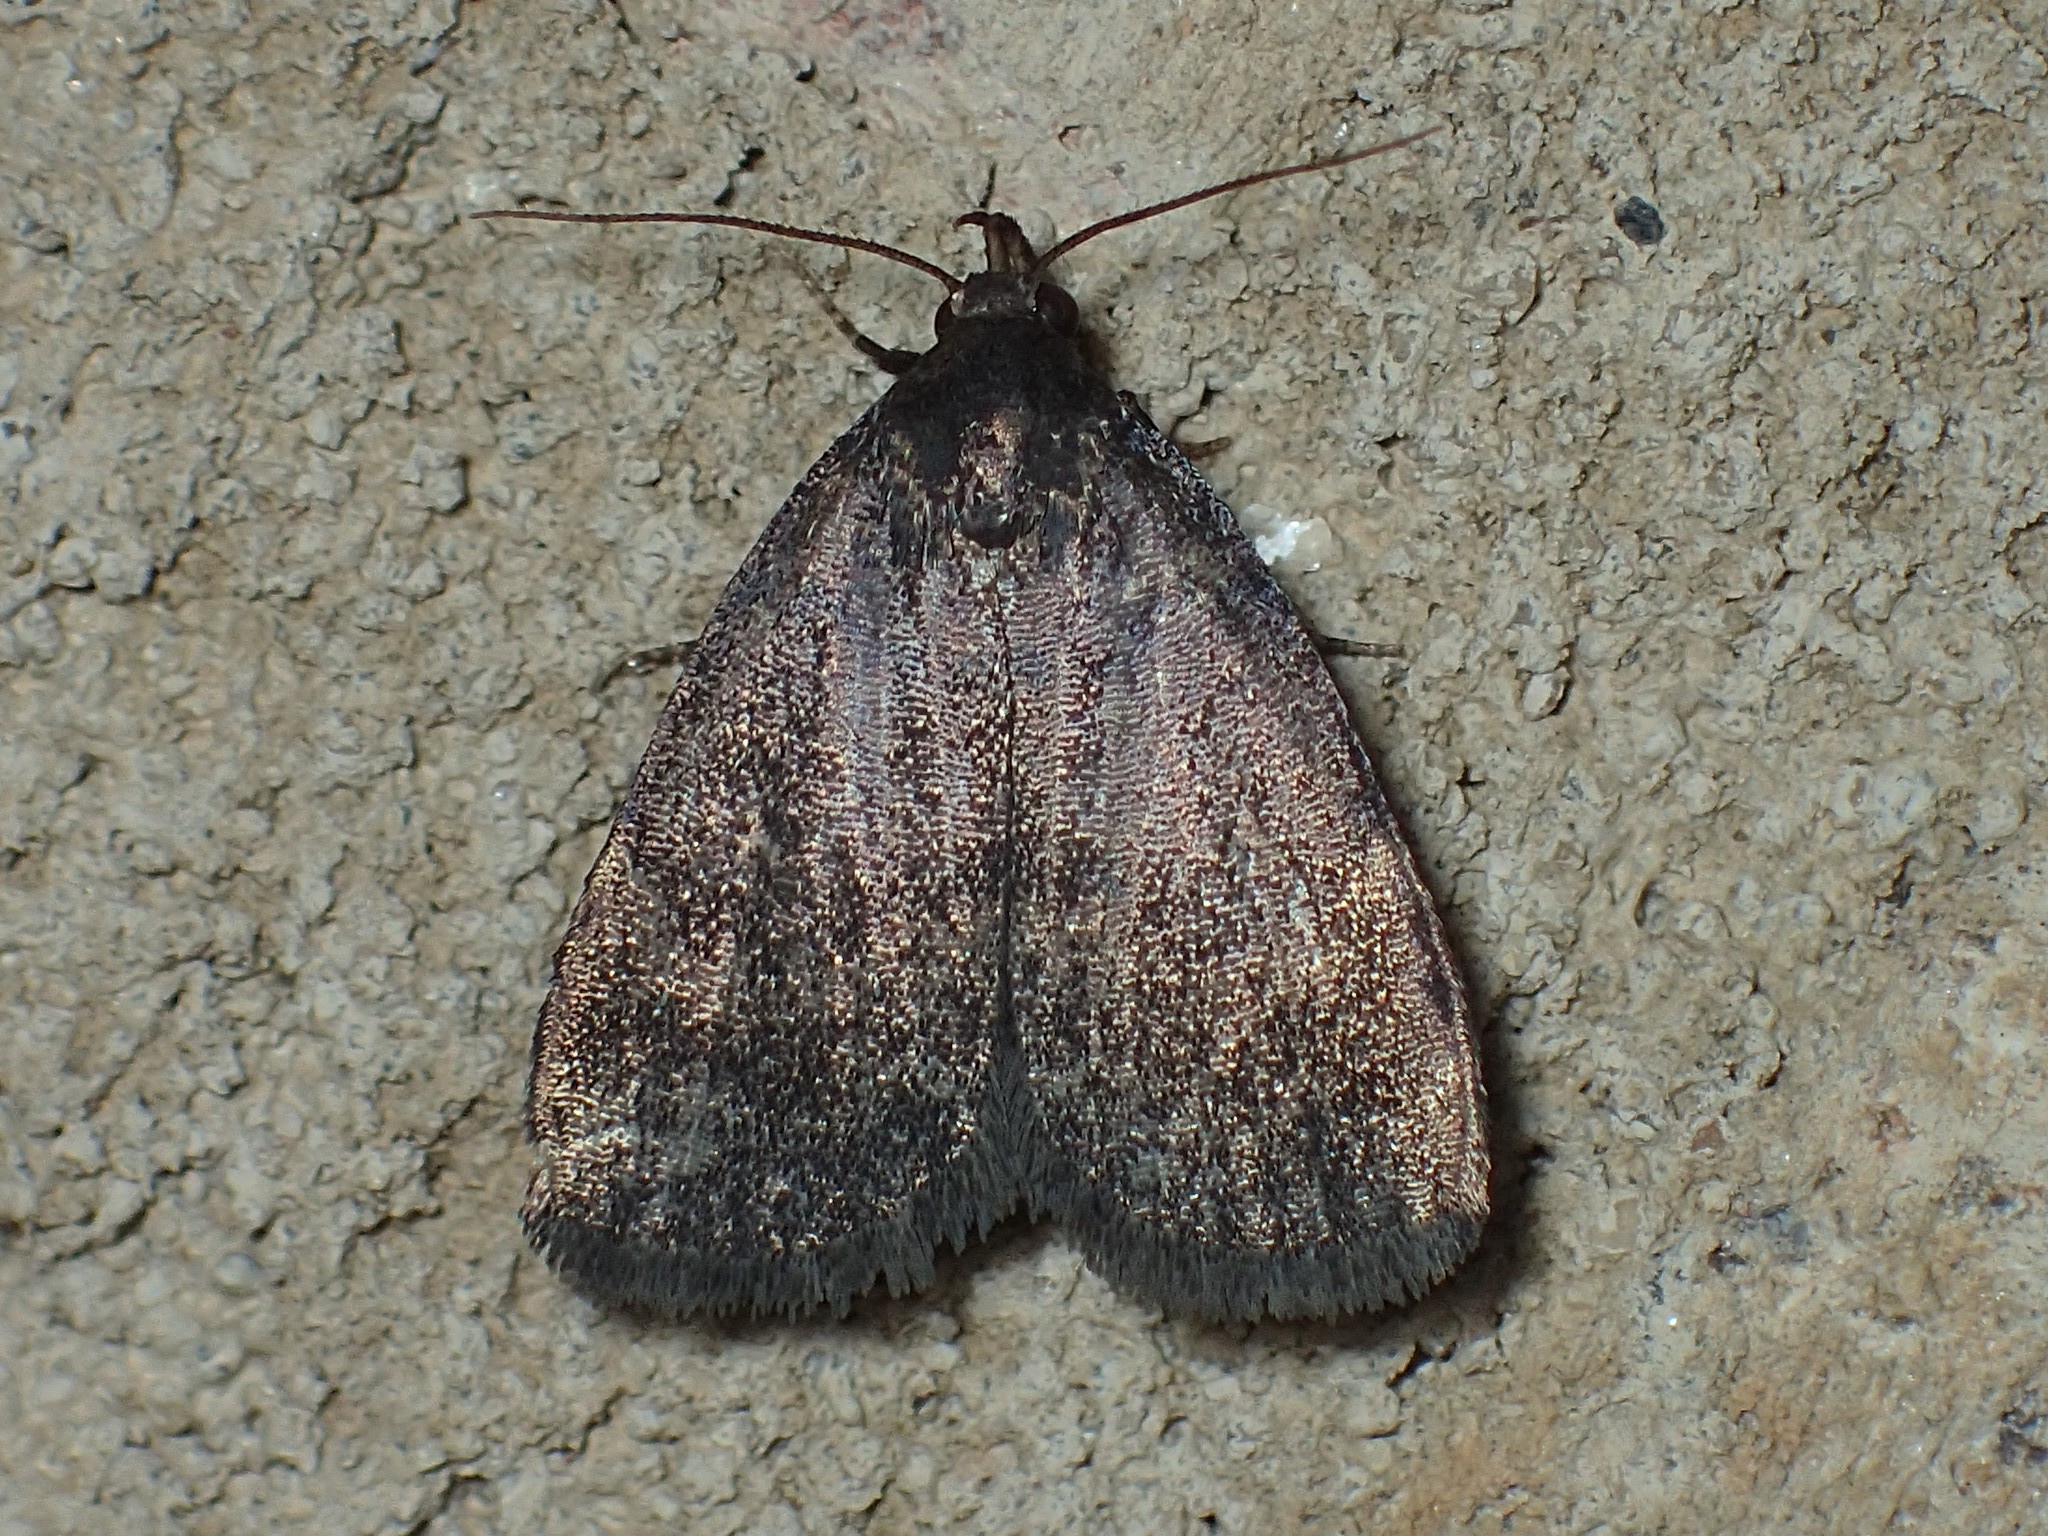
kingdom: Animalia
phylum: Arthropoda
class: Insecta
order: Lepidoptera
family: Erebidae
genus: Idia
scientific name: Idia rotundalis
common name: Rotund idia moth
